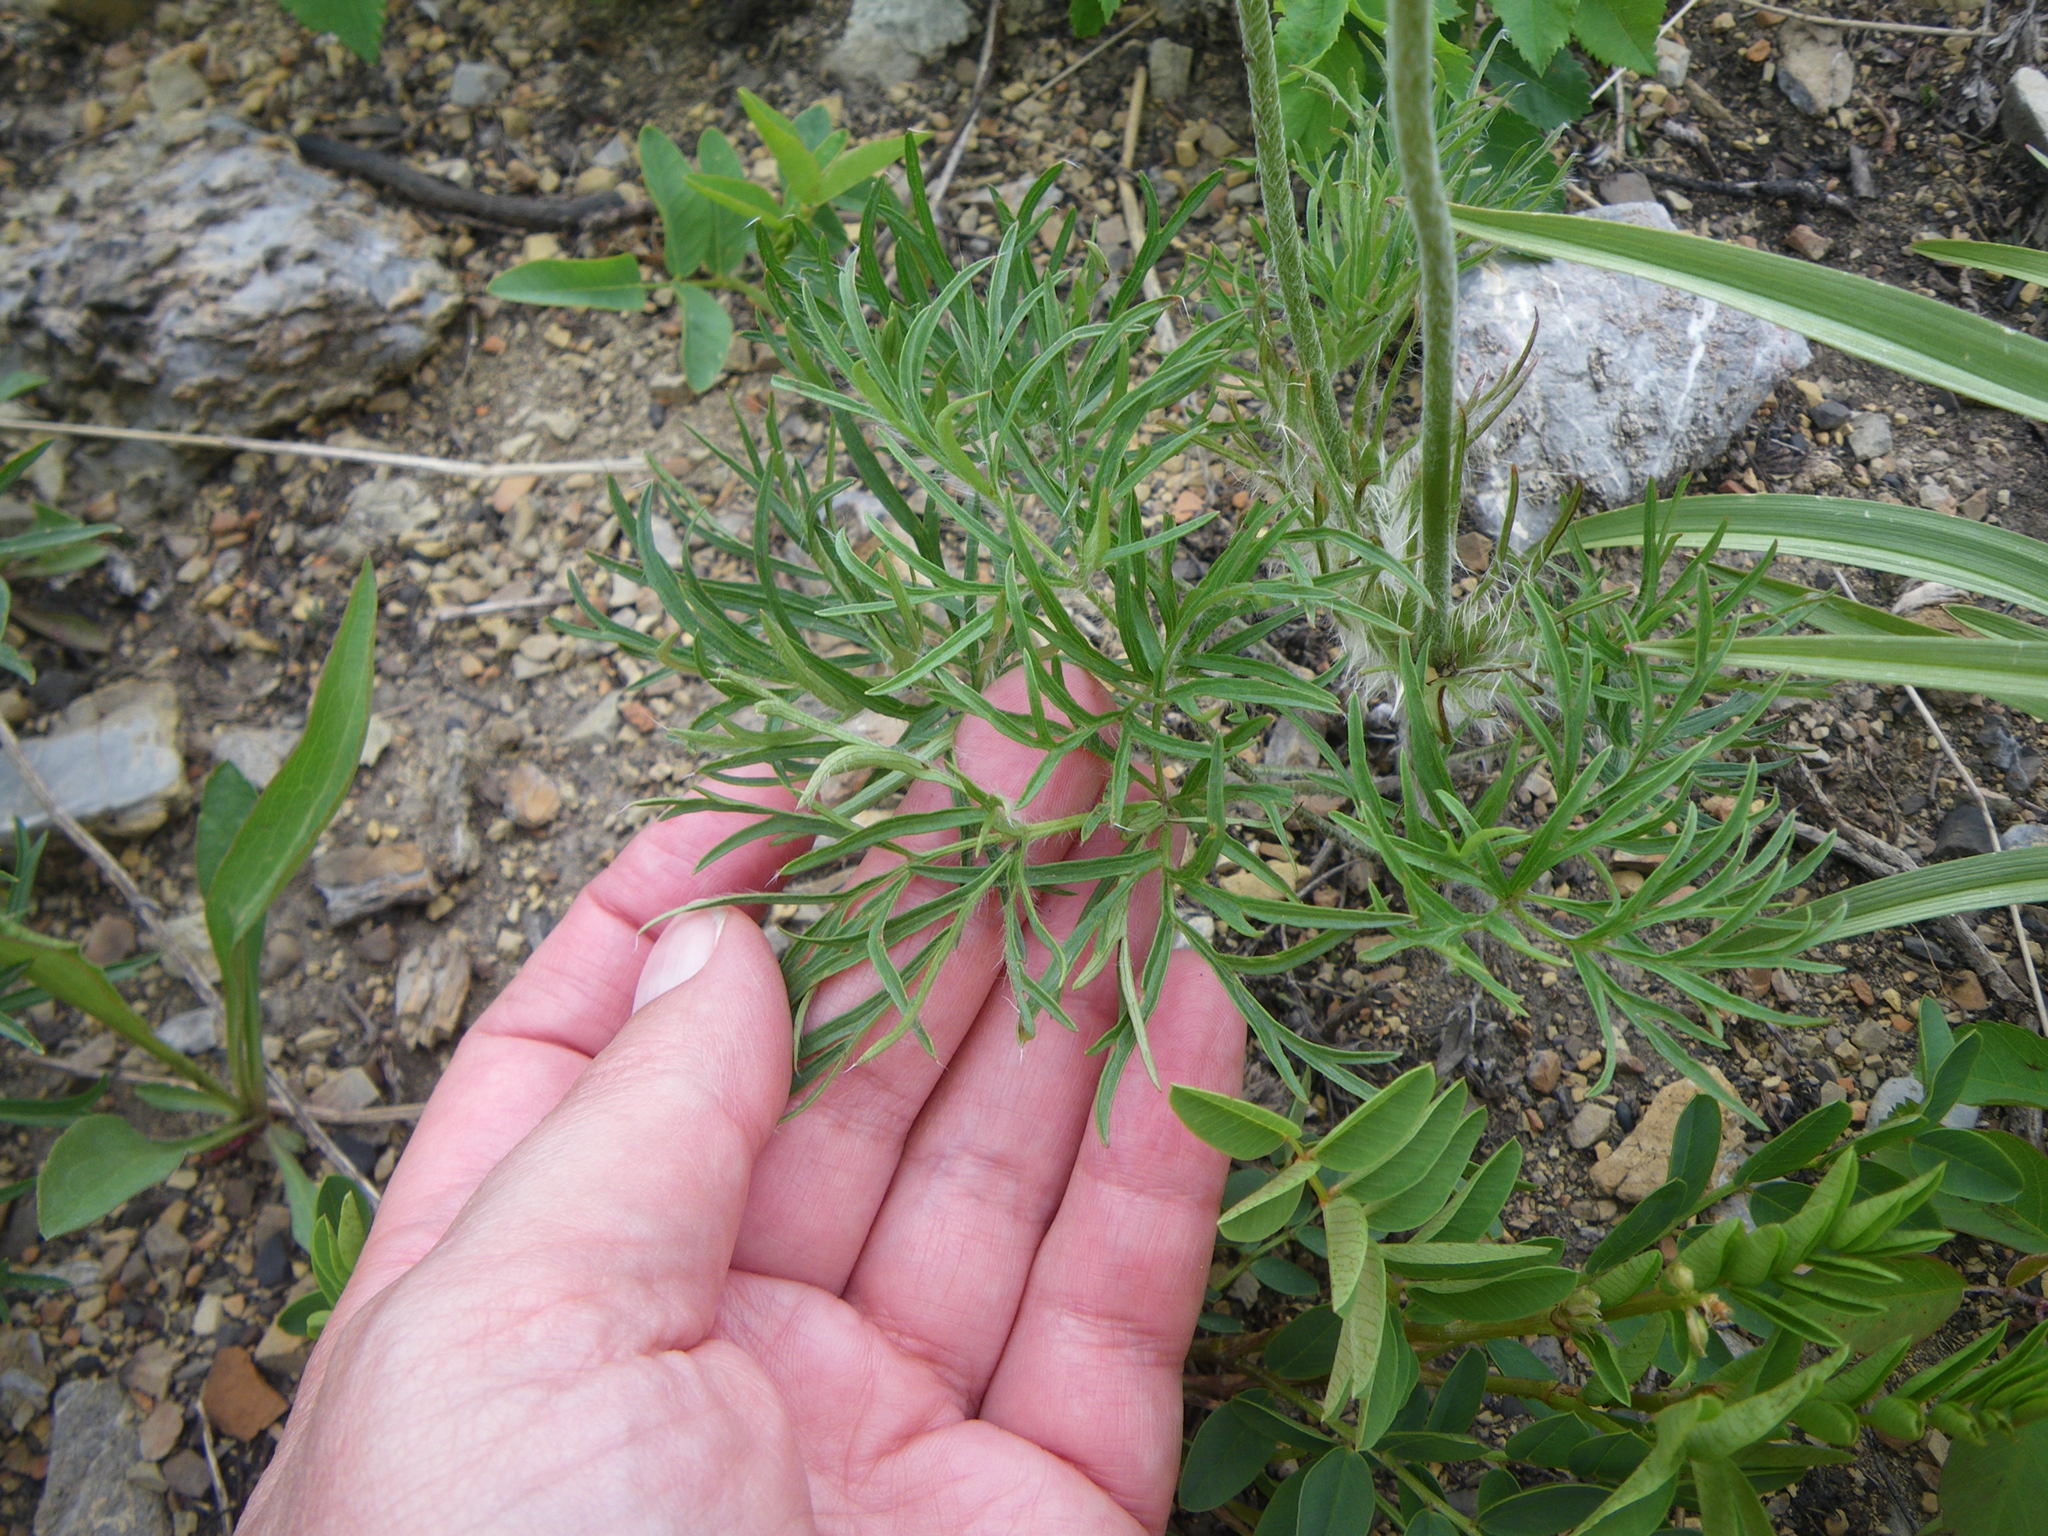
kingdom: Plantae
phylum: Tracheophyta
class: Magnoliopsida
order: Ranunculales
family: Ranunculaceae
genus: Pulsatilla
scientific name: Pulsatilla nuttalliana
